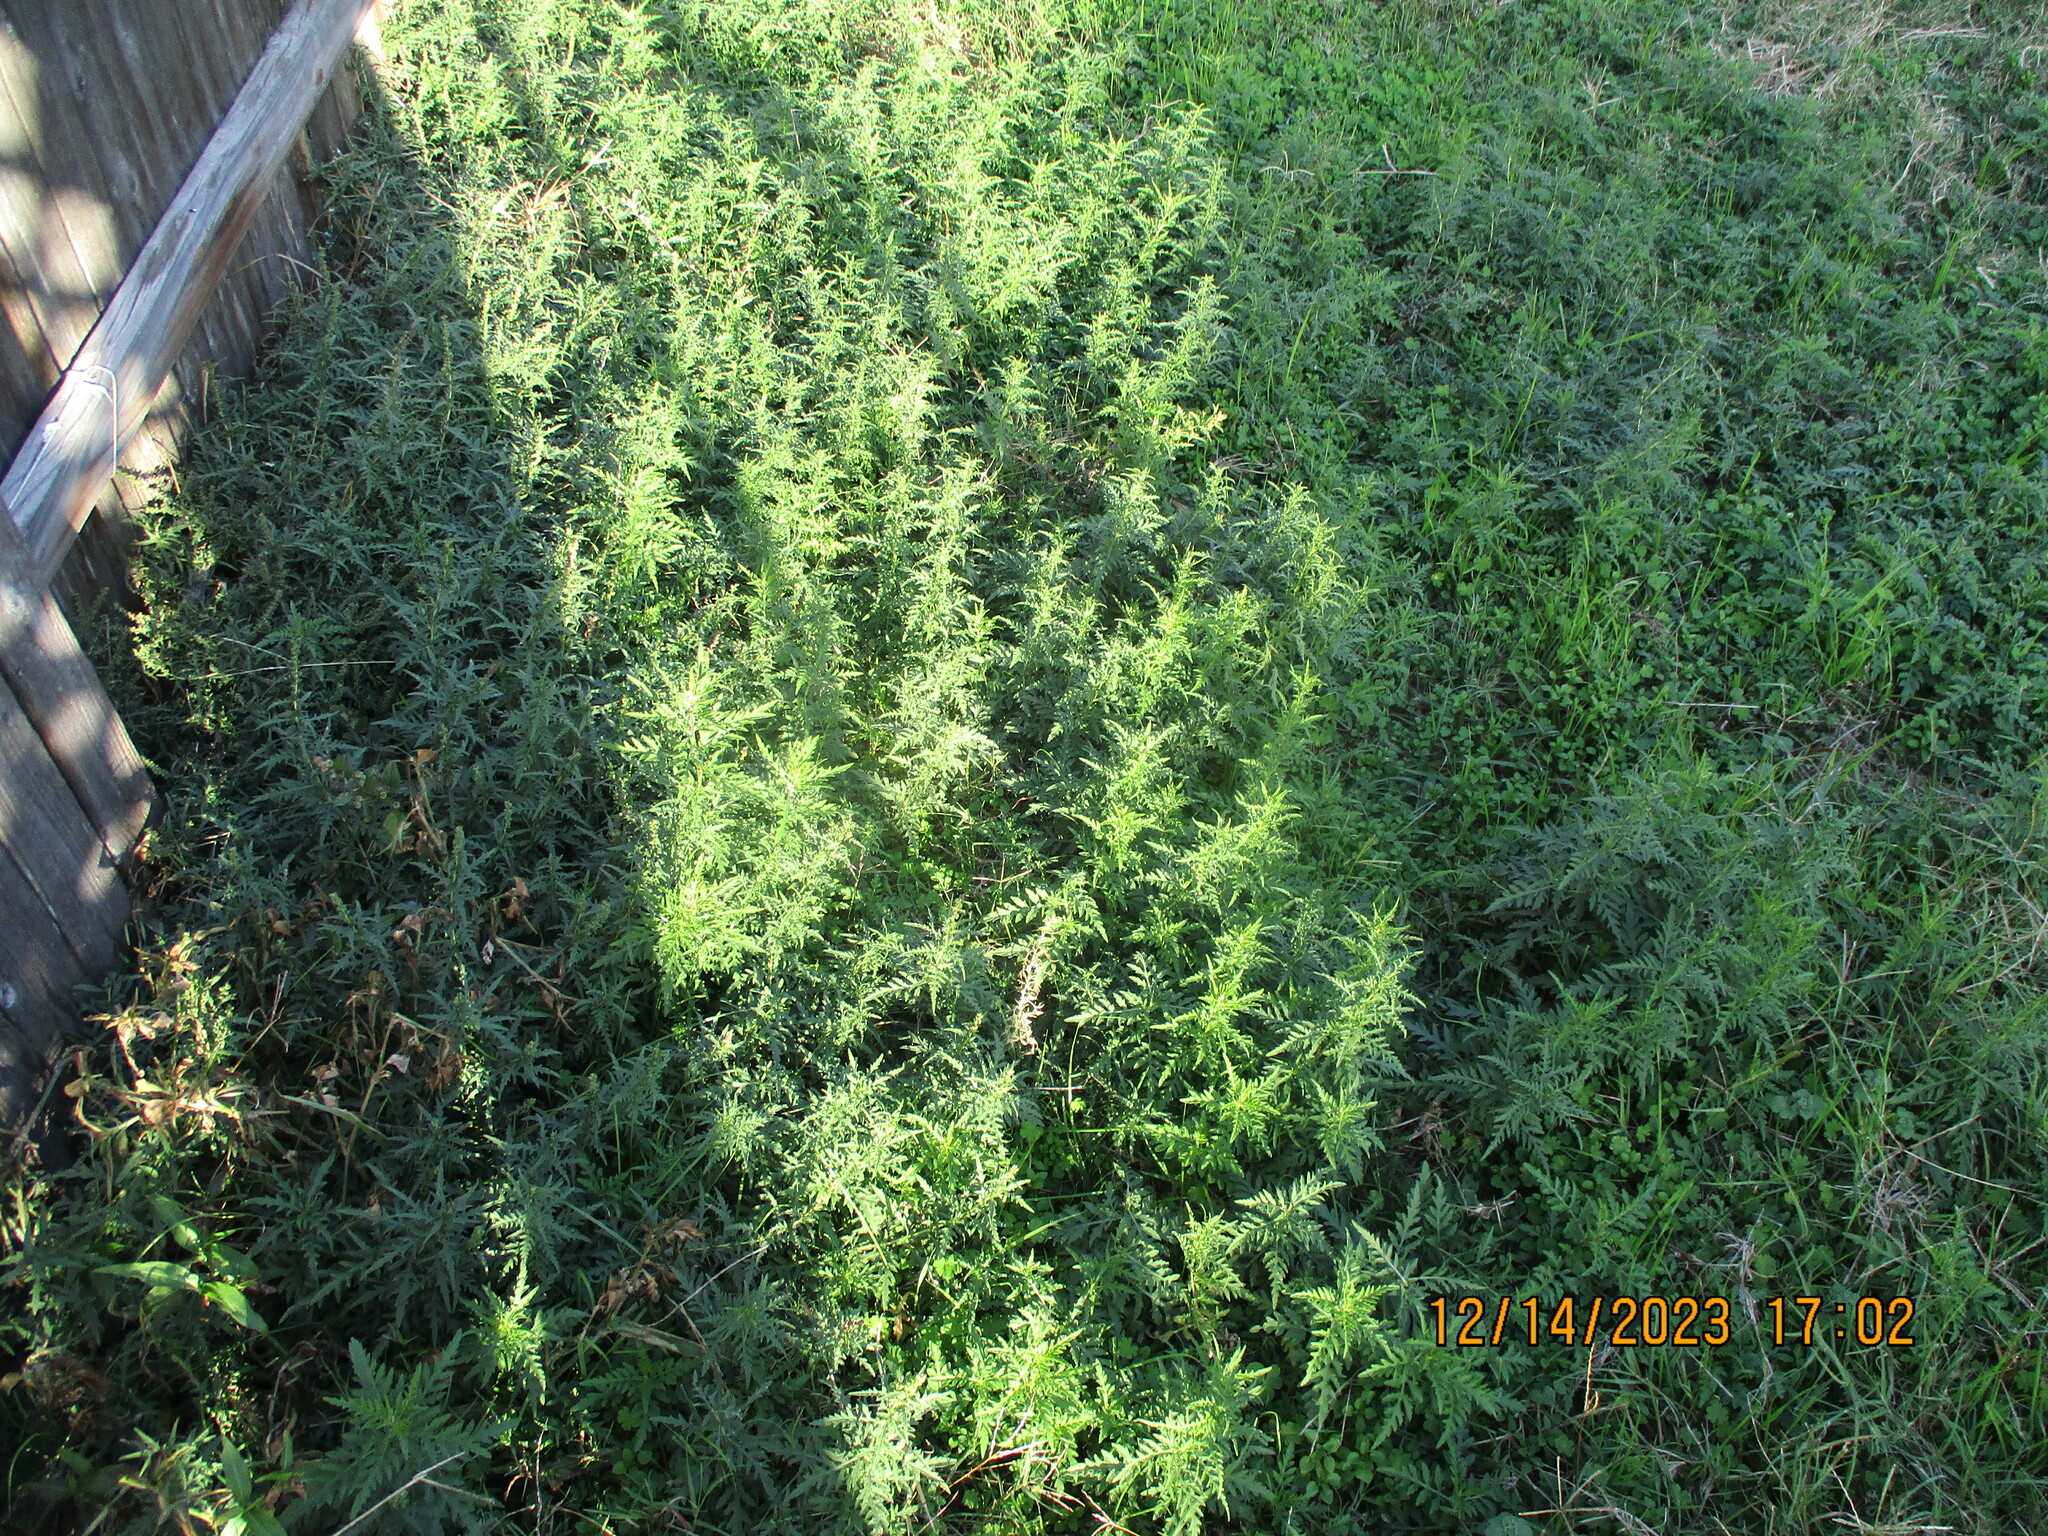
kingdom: Plantae
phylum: Tracheophyta
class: Magnoliopsida
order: Asterales
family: Asteraceae
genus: Ambrosia
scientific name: Ambrosia psilostachya
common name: Perennial ragweed
